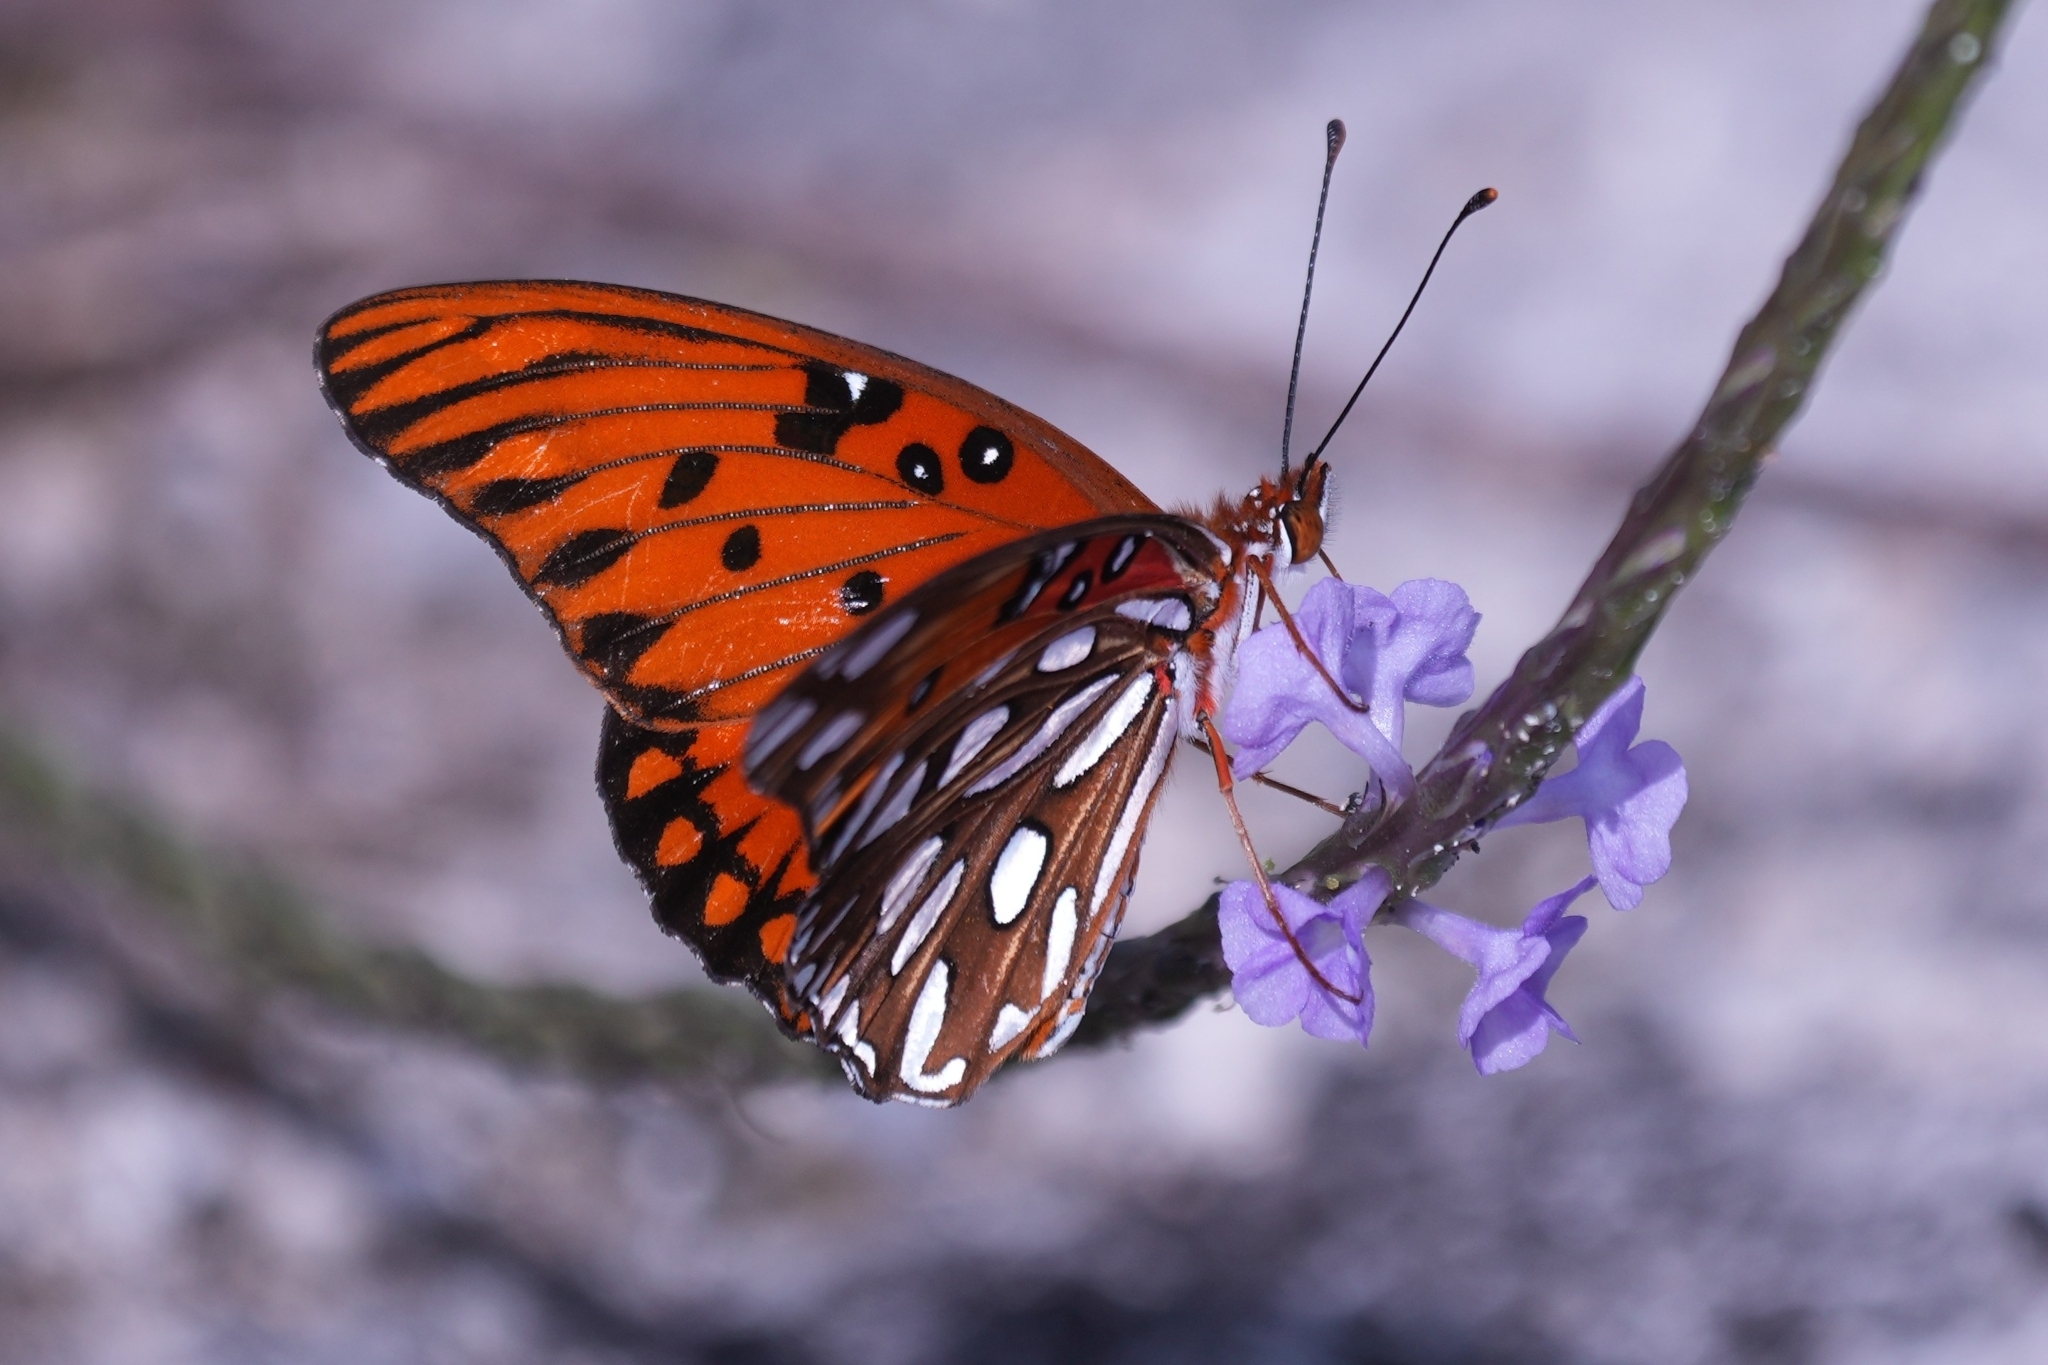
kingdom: Animalia
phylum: Arthropoda
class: Insecta
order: Lepidoptera
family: Nymphalidae
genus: Dione
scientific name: Dione vanillae
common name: Gulf fritillary
